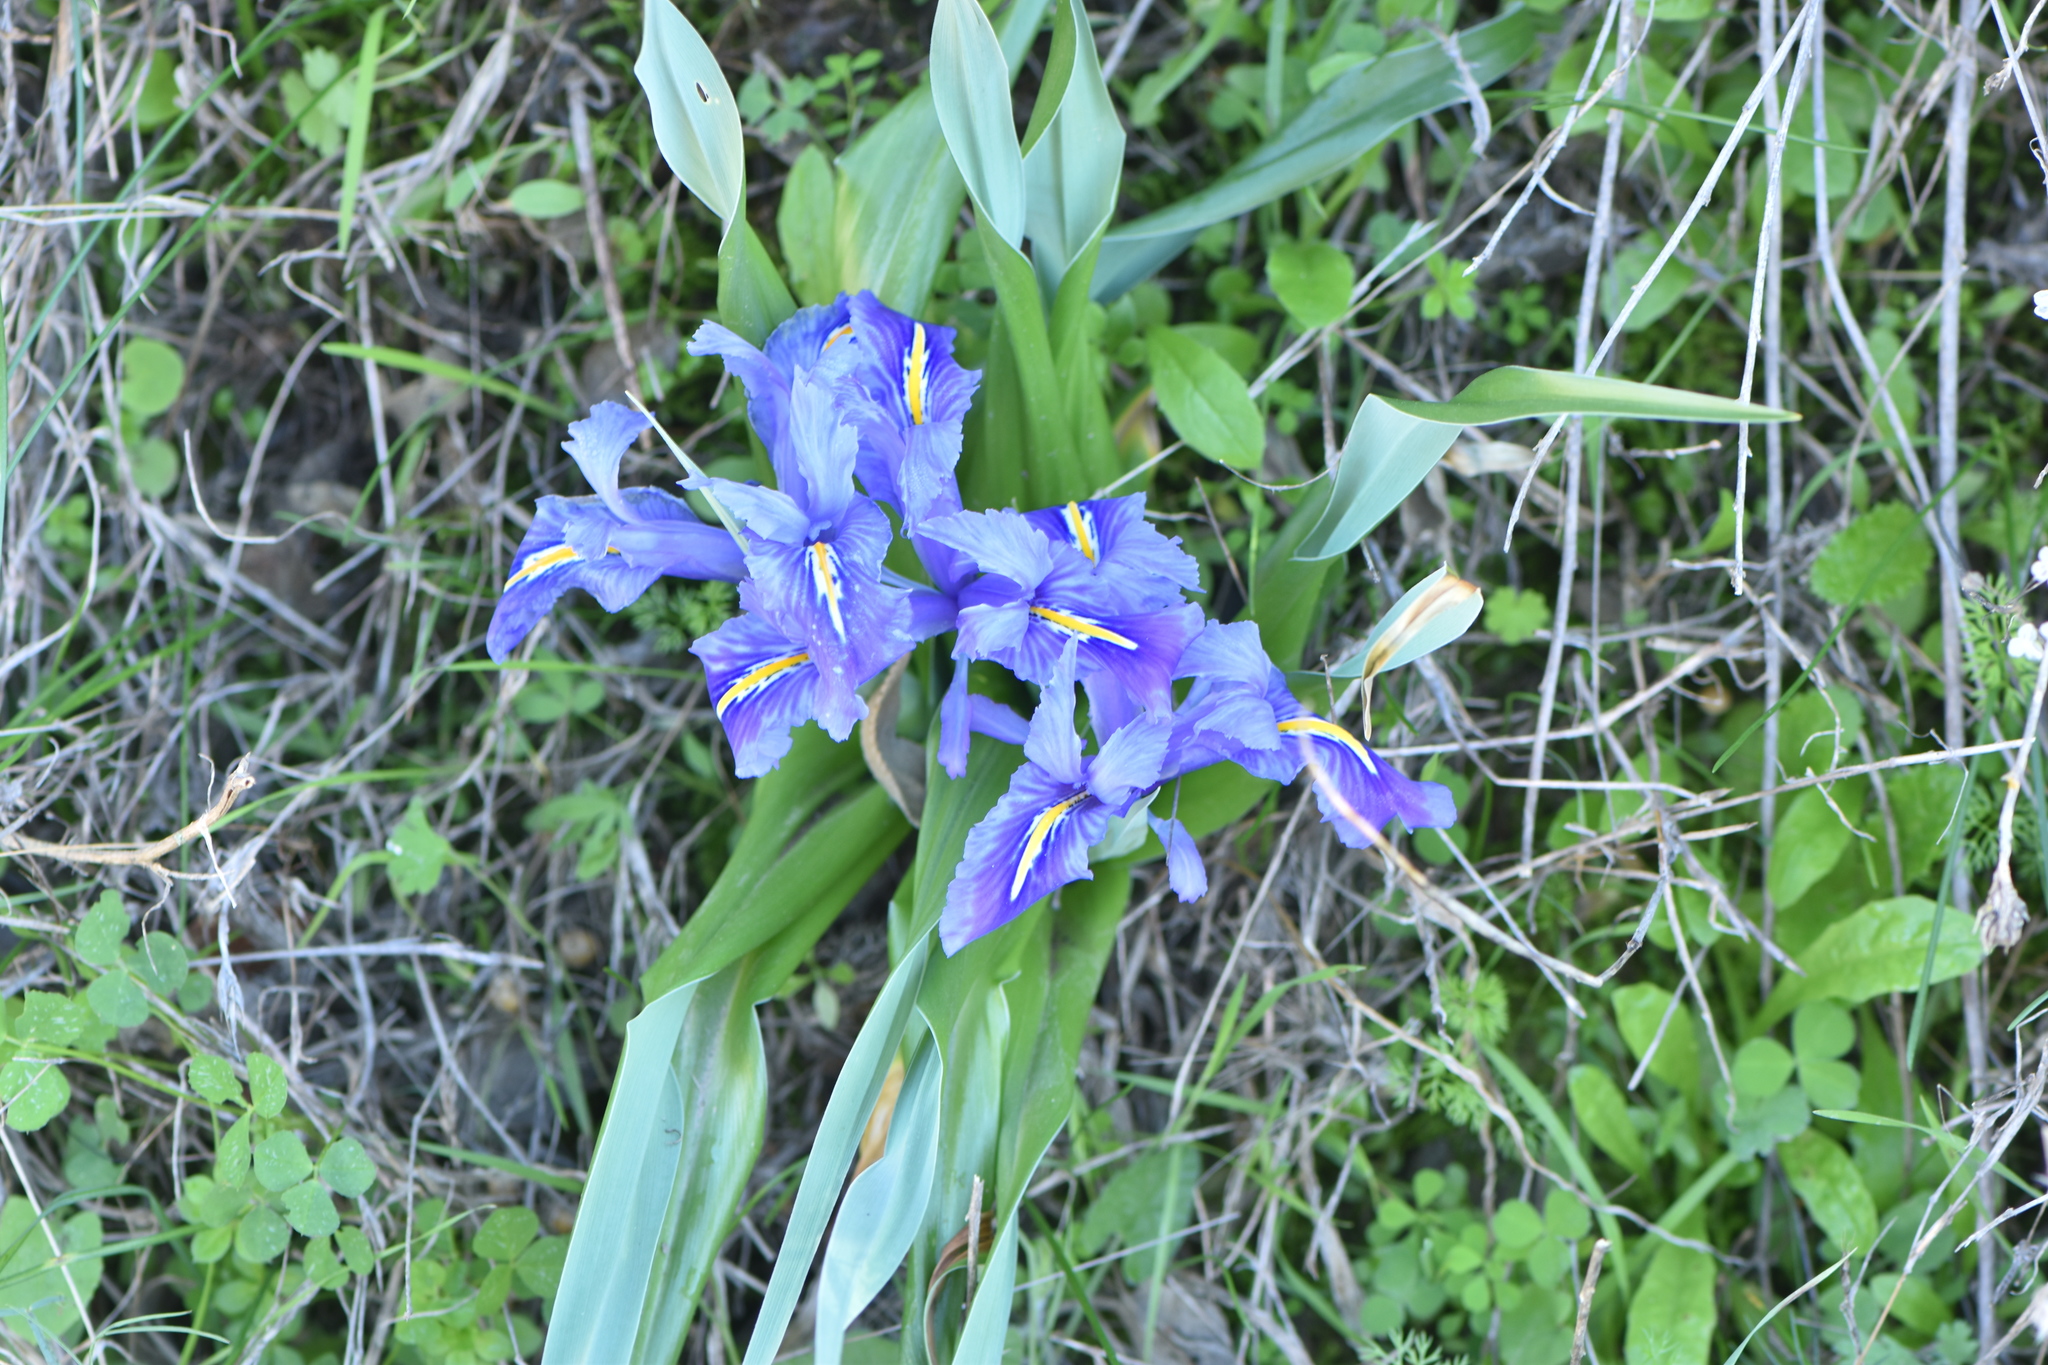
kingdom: Plantae
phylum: Tracheophyta
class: Liliopsida
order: Asparagales
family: Iridaceae
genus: Iris
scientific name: Iris planifolia
